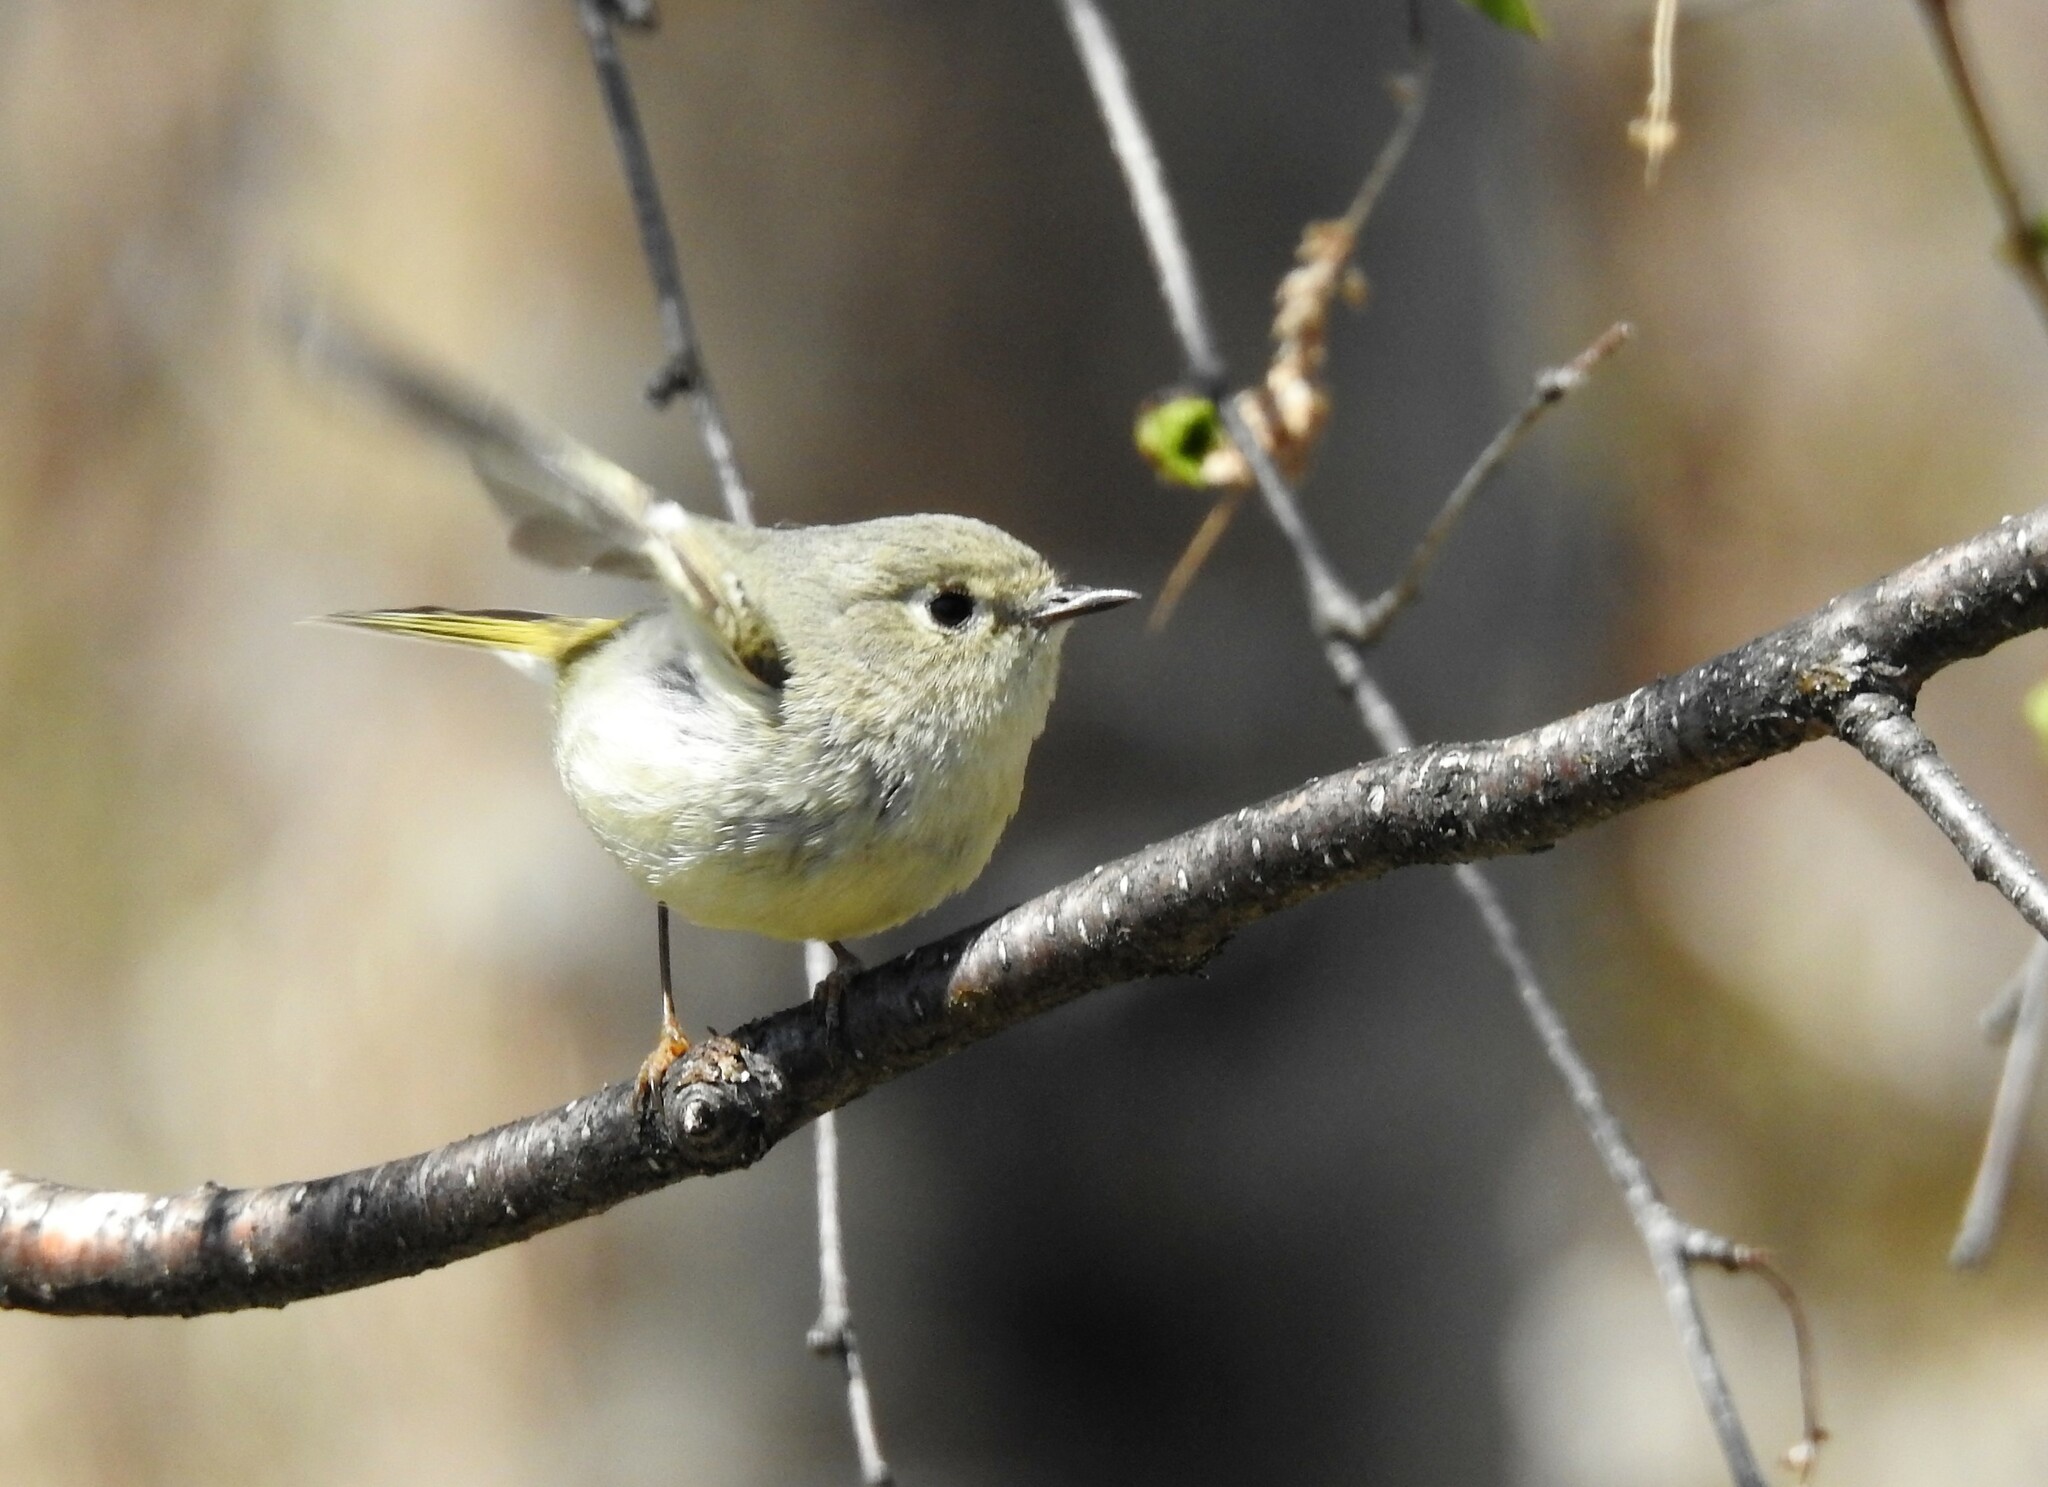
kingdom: Animalia
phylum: Chordata
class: Aves
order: Passeriformes
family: Regulidae
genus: Regulus
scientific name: Regulus calendula
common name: Ruby-crowned kinglet
